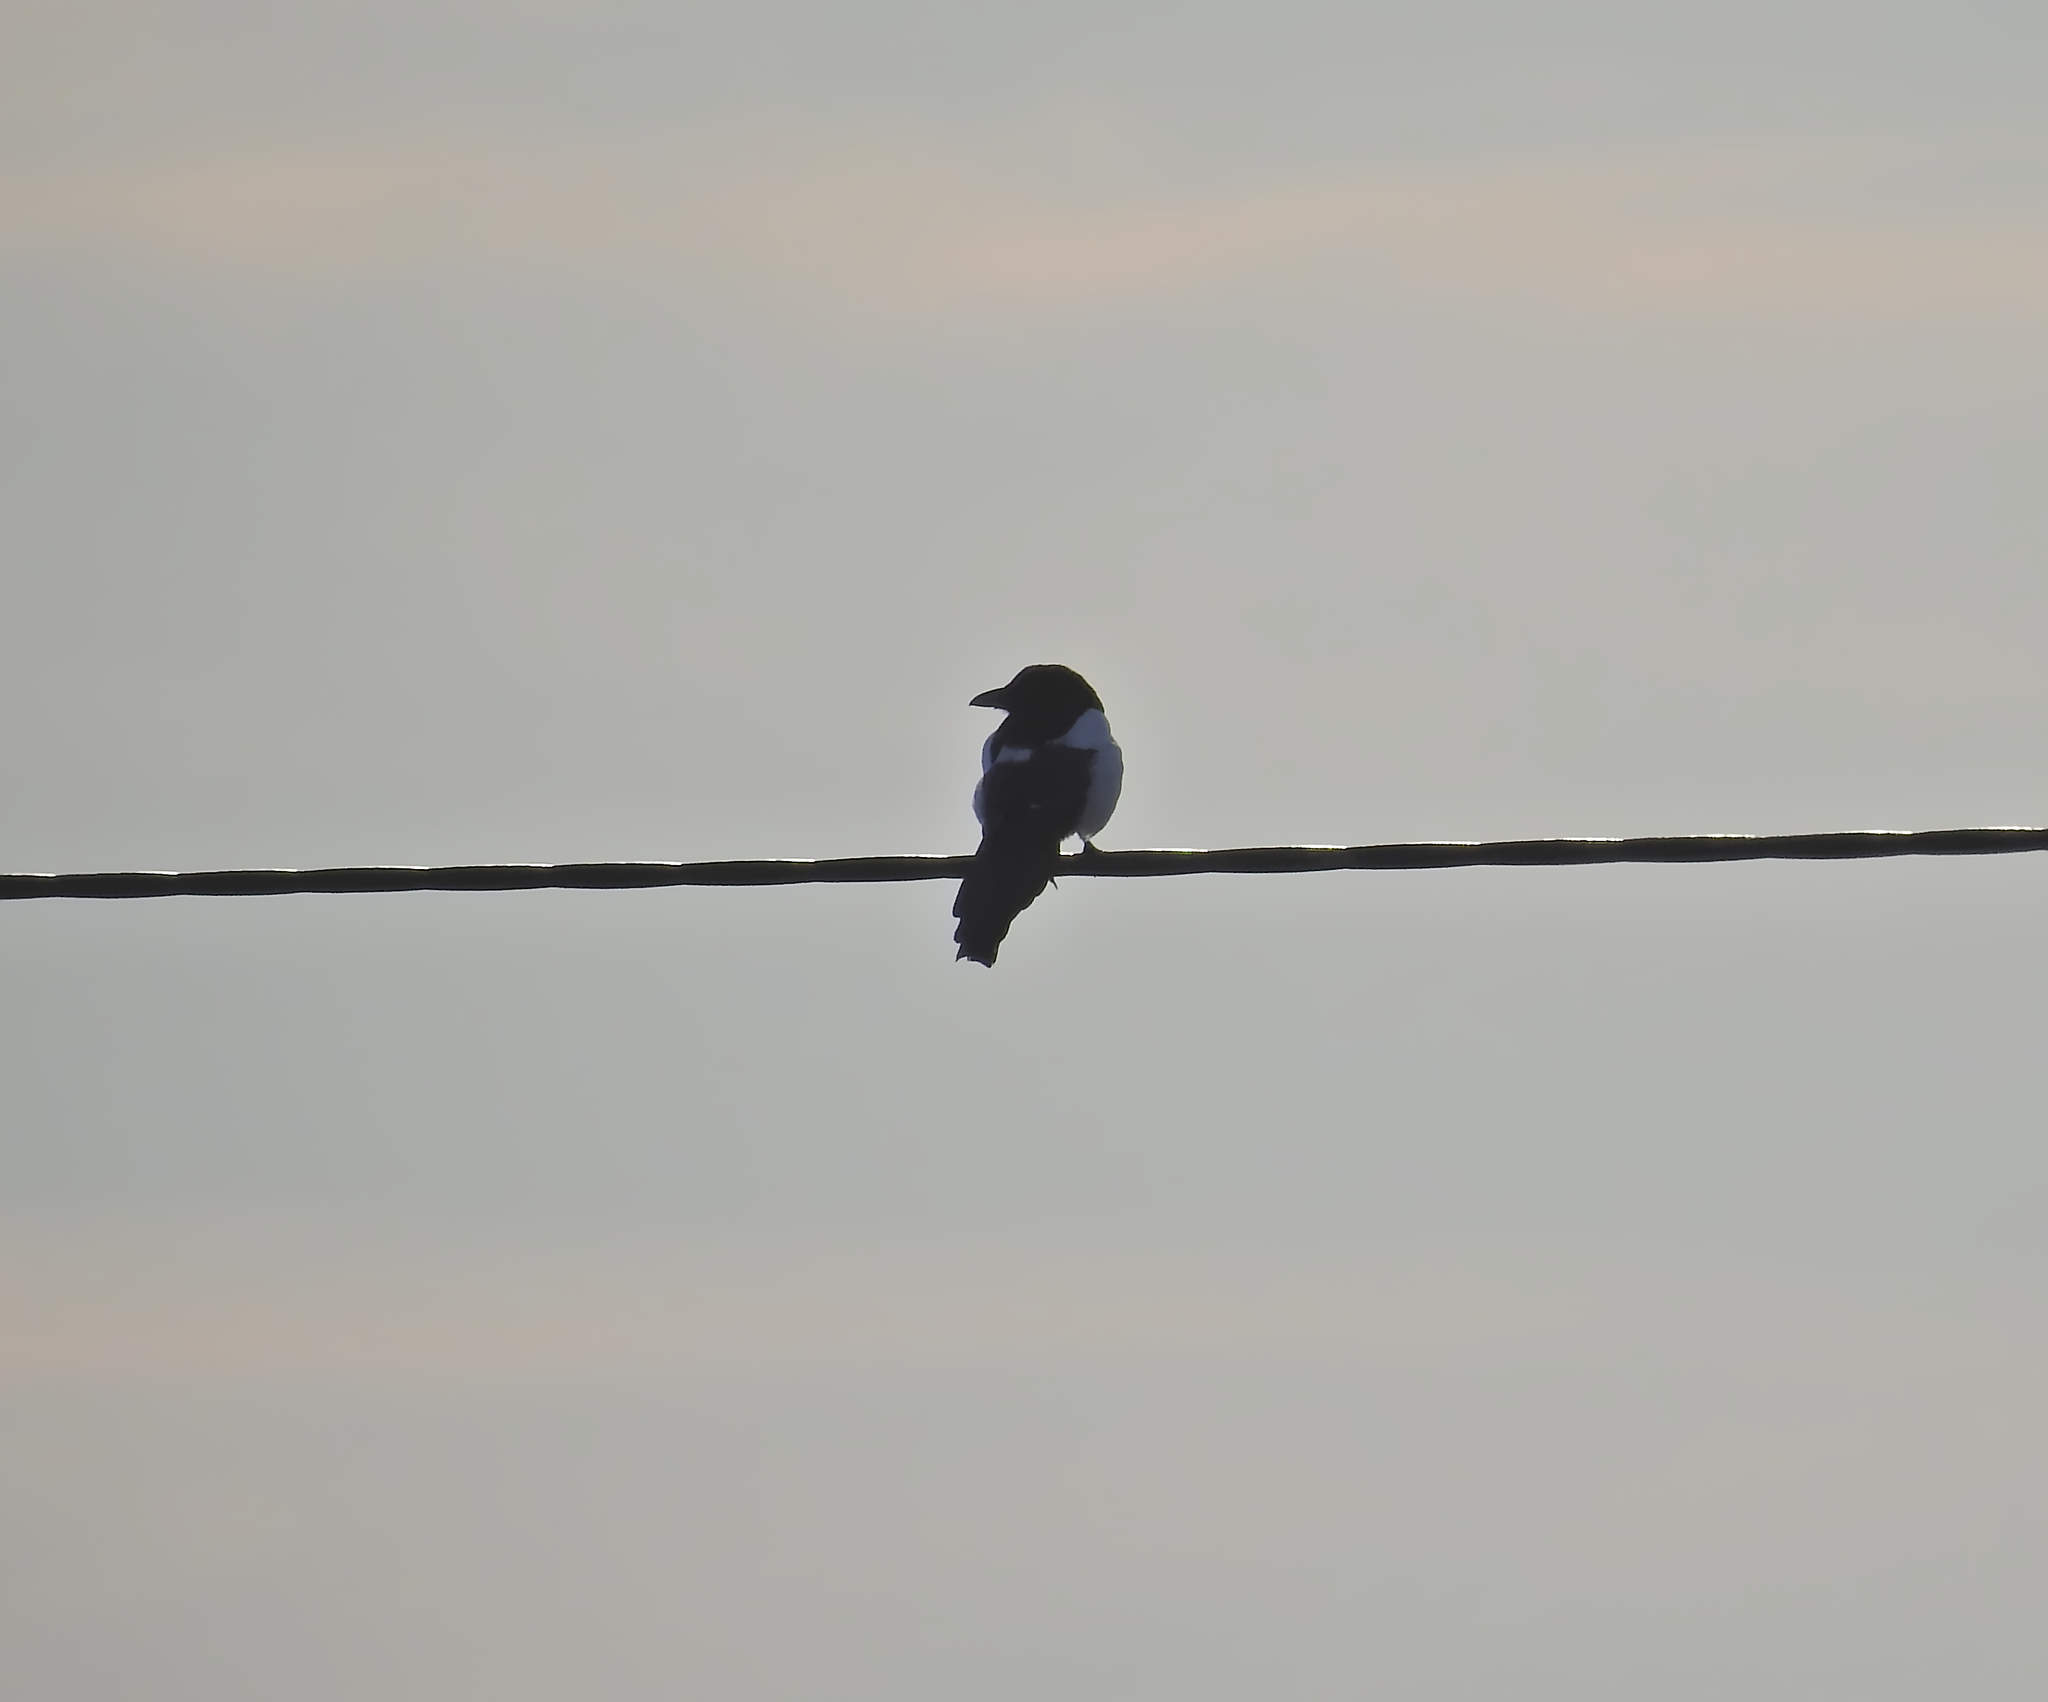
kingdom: Animalia
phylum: Chordata
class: Aves
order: Passeriformes
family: Corvidae
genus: Pica
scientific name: Pica pica
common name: Eurasian magpie
